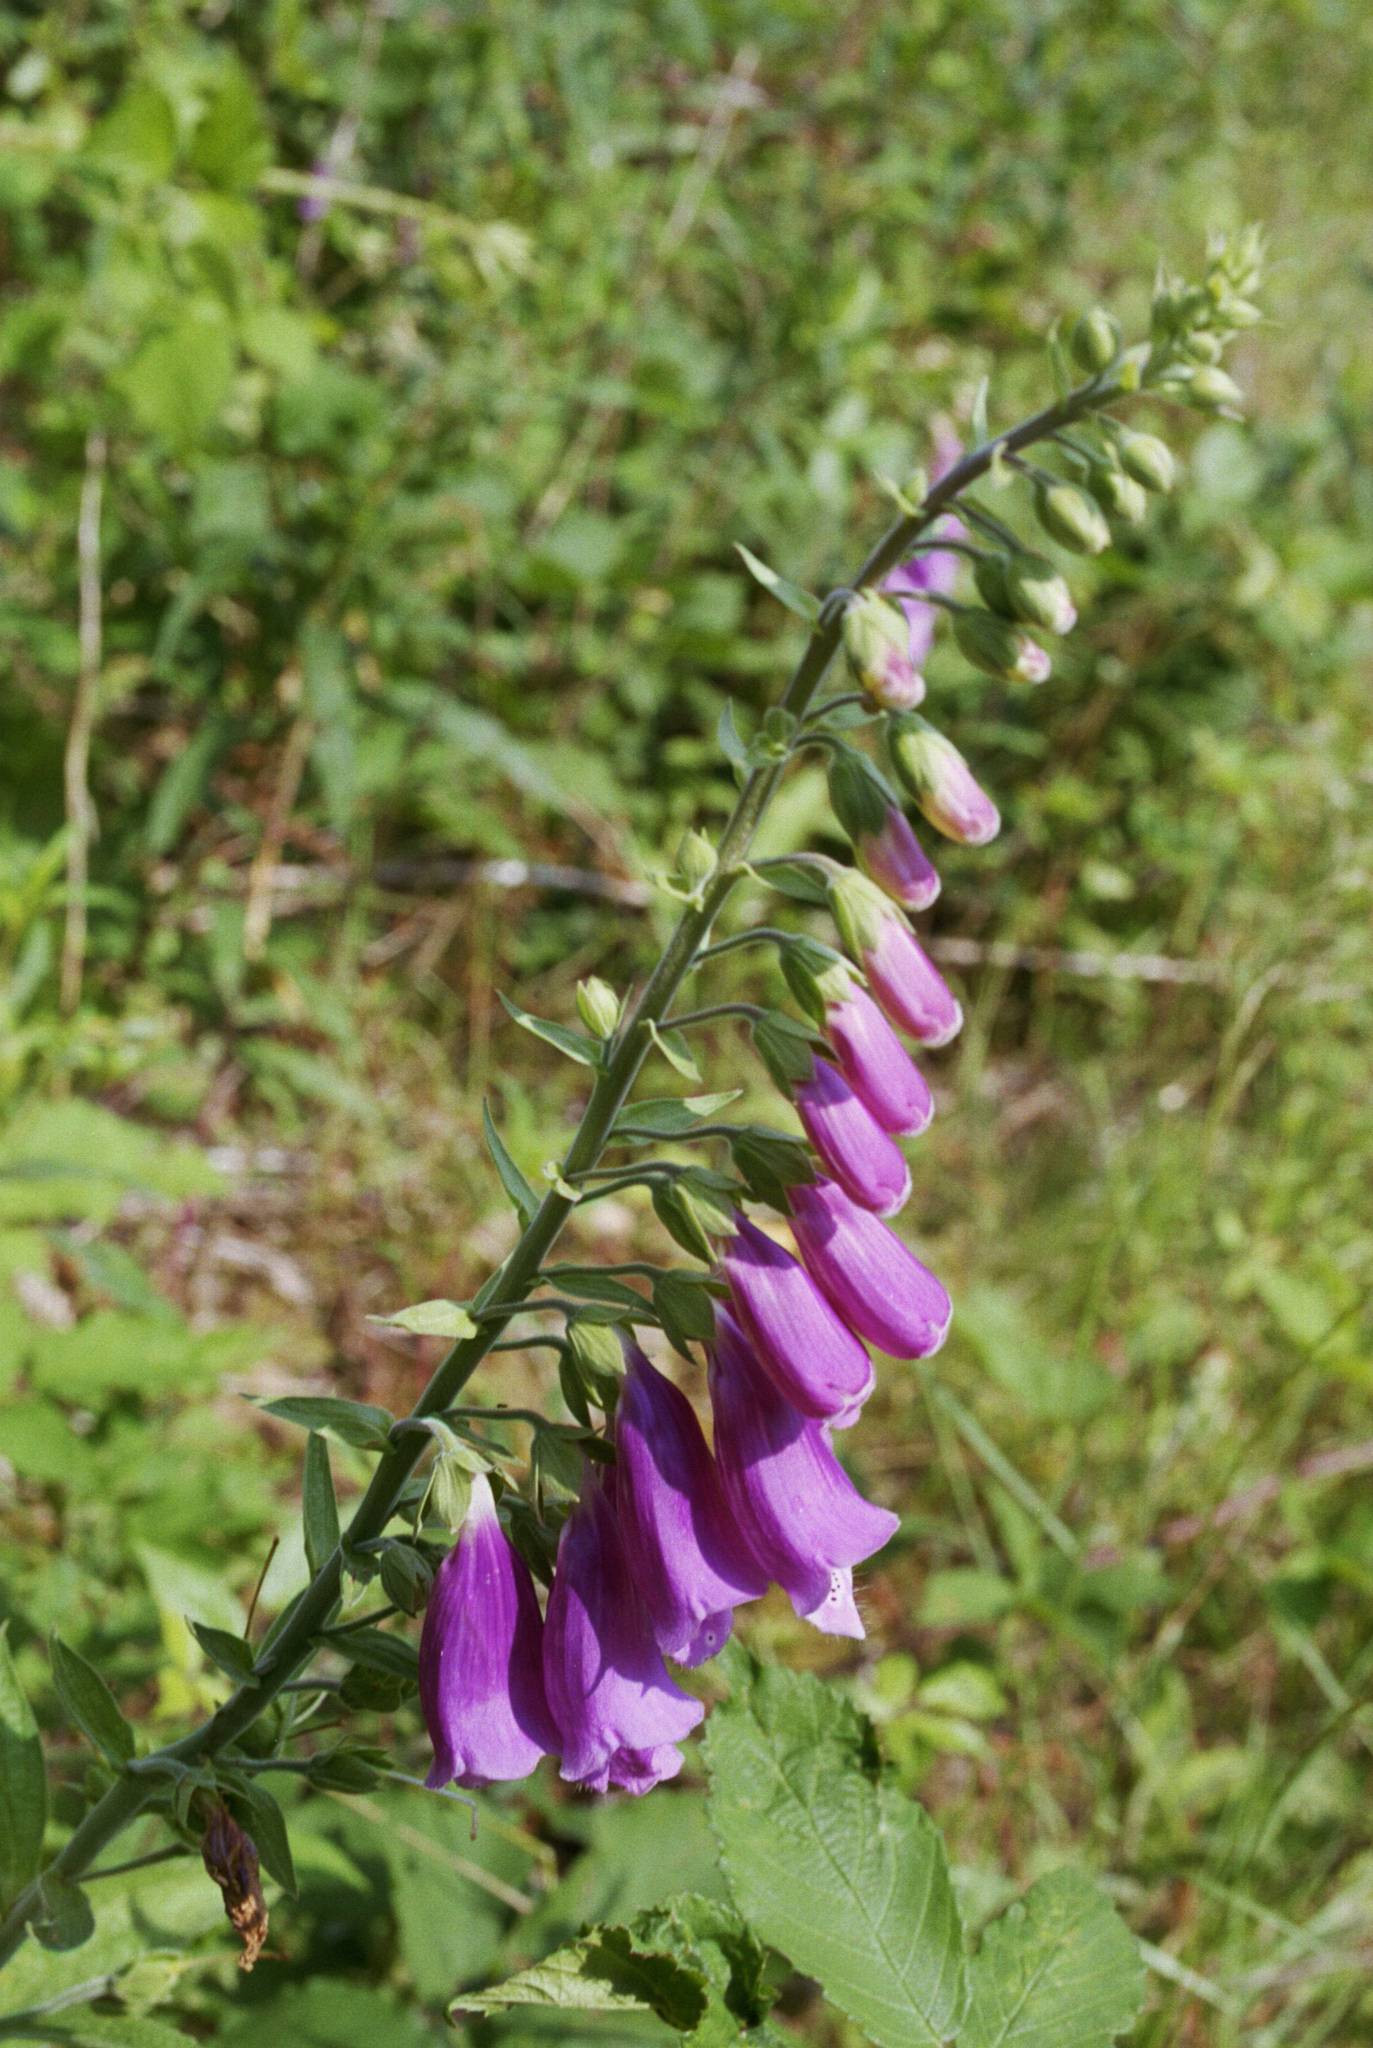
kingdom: Plantae
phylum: Tracheophyta
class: Magnoliopsida
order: Lamiales
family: Plantaginaceae
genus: Digitalis
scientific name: Digitalis purpurea
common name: Foxglove
